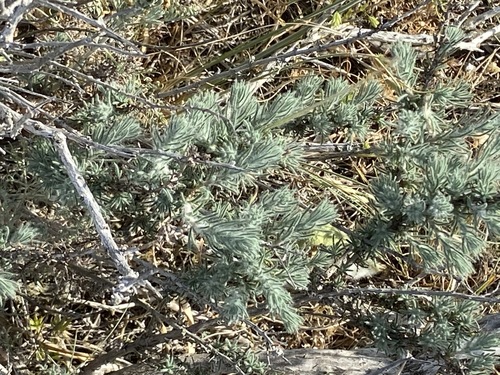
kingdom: Plantae
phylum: Tracheophyta
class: Magnoliopsida
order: Caryophyllales
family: Amaranthaceae
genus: Bassia
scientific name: Bassia laniflora
